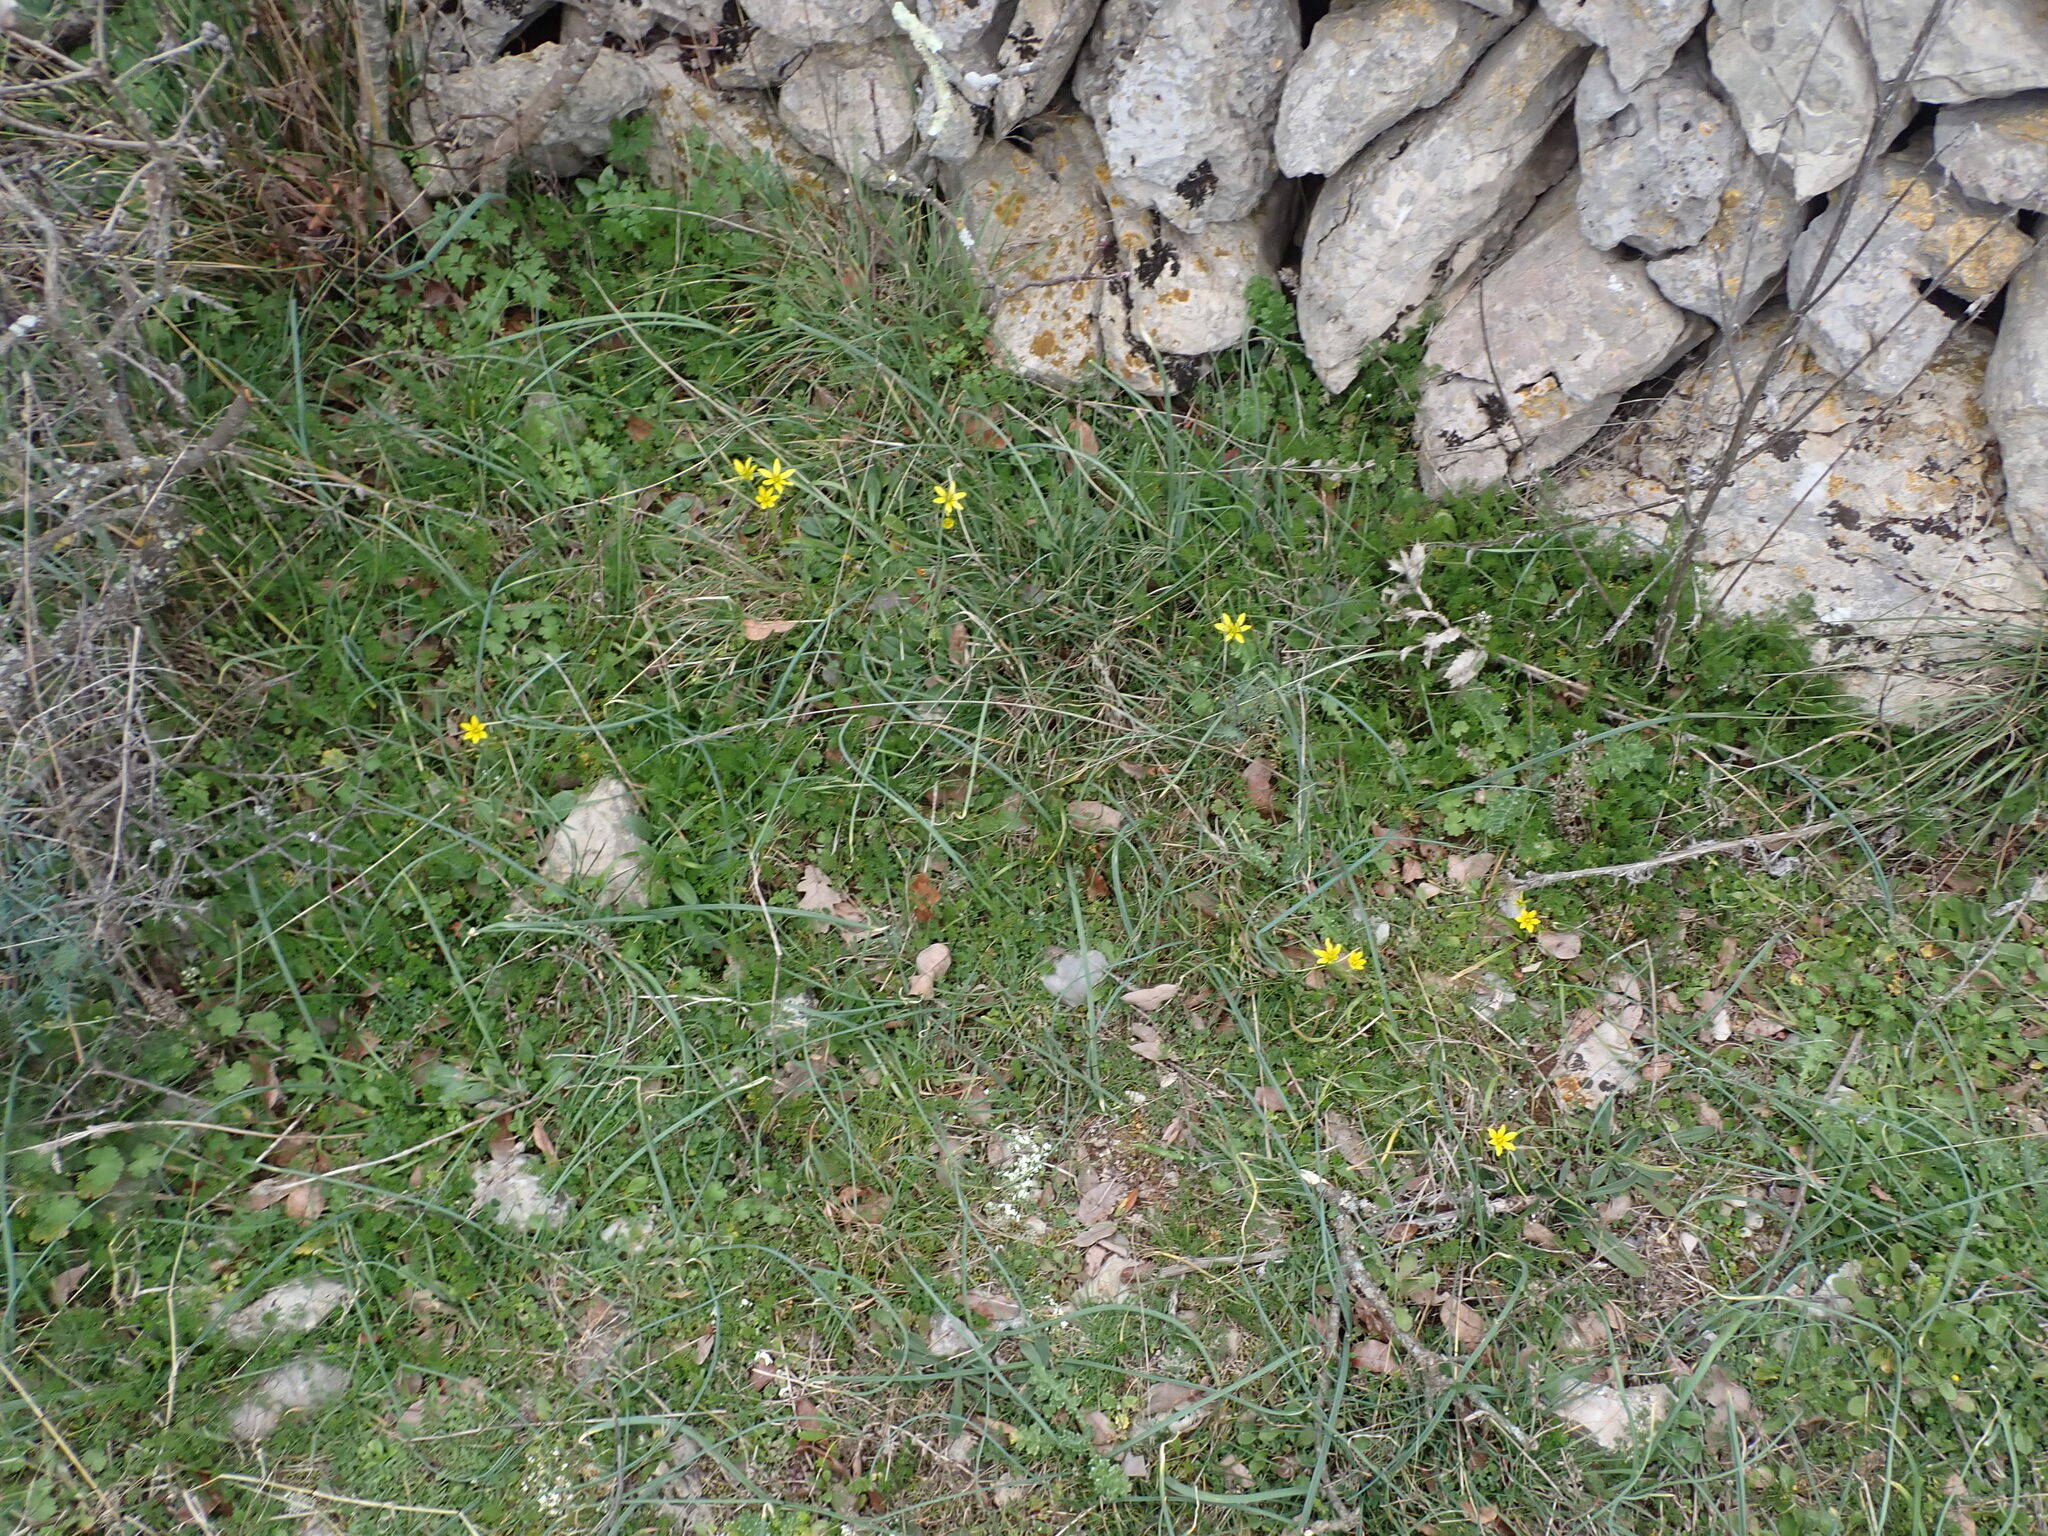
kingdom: Plantae
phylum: Tracheophyta
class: Liliopsida
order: Liliales
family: Liliaceae
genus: Gagea
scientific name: Gagea lacaitae
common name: Gagée de lacaita
